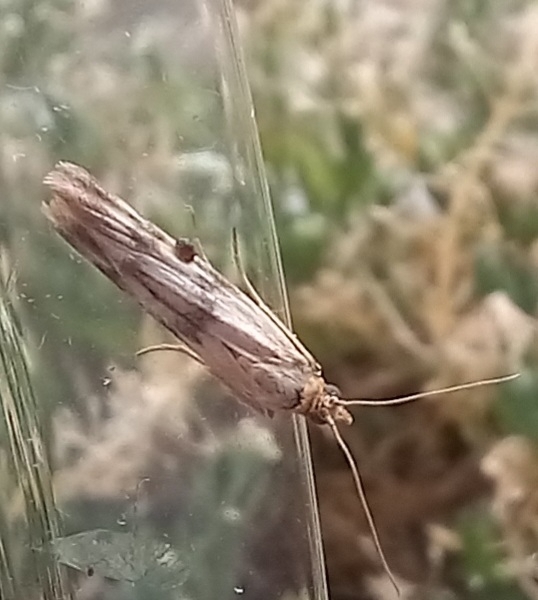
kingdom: Animalia
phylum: Arthropoda
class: Insecta
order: Lepidoptera
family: Pyralidae
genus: Homoeosoma
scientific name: Homoeosoma sinuella
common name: Twin-barred knot-horn
